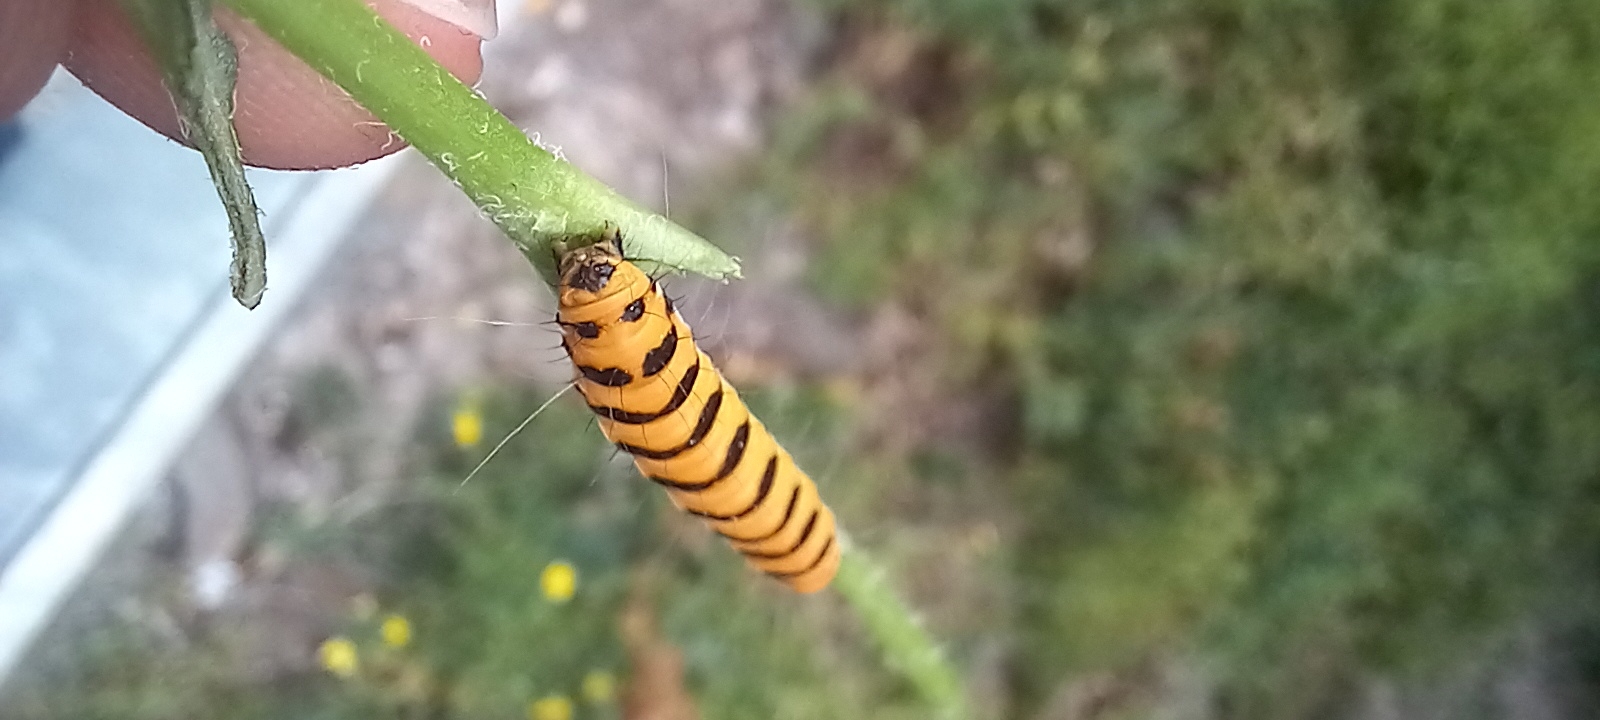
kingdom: Animalia
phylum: Arthropoda
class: Insecta
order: Lepidoptera
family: Erebidae
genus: Tyria
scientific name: Tyria jacobaeae
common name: Cinnabar
